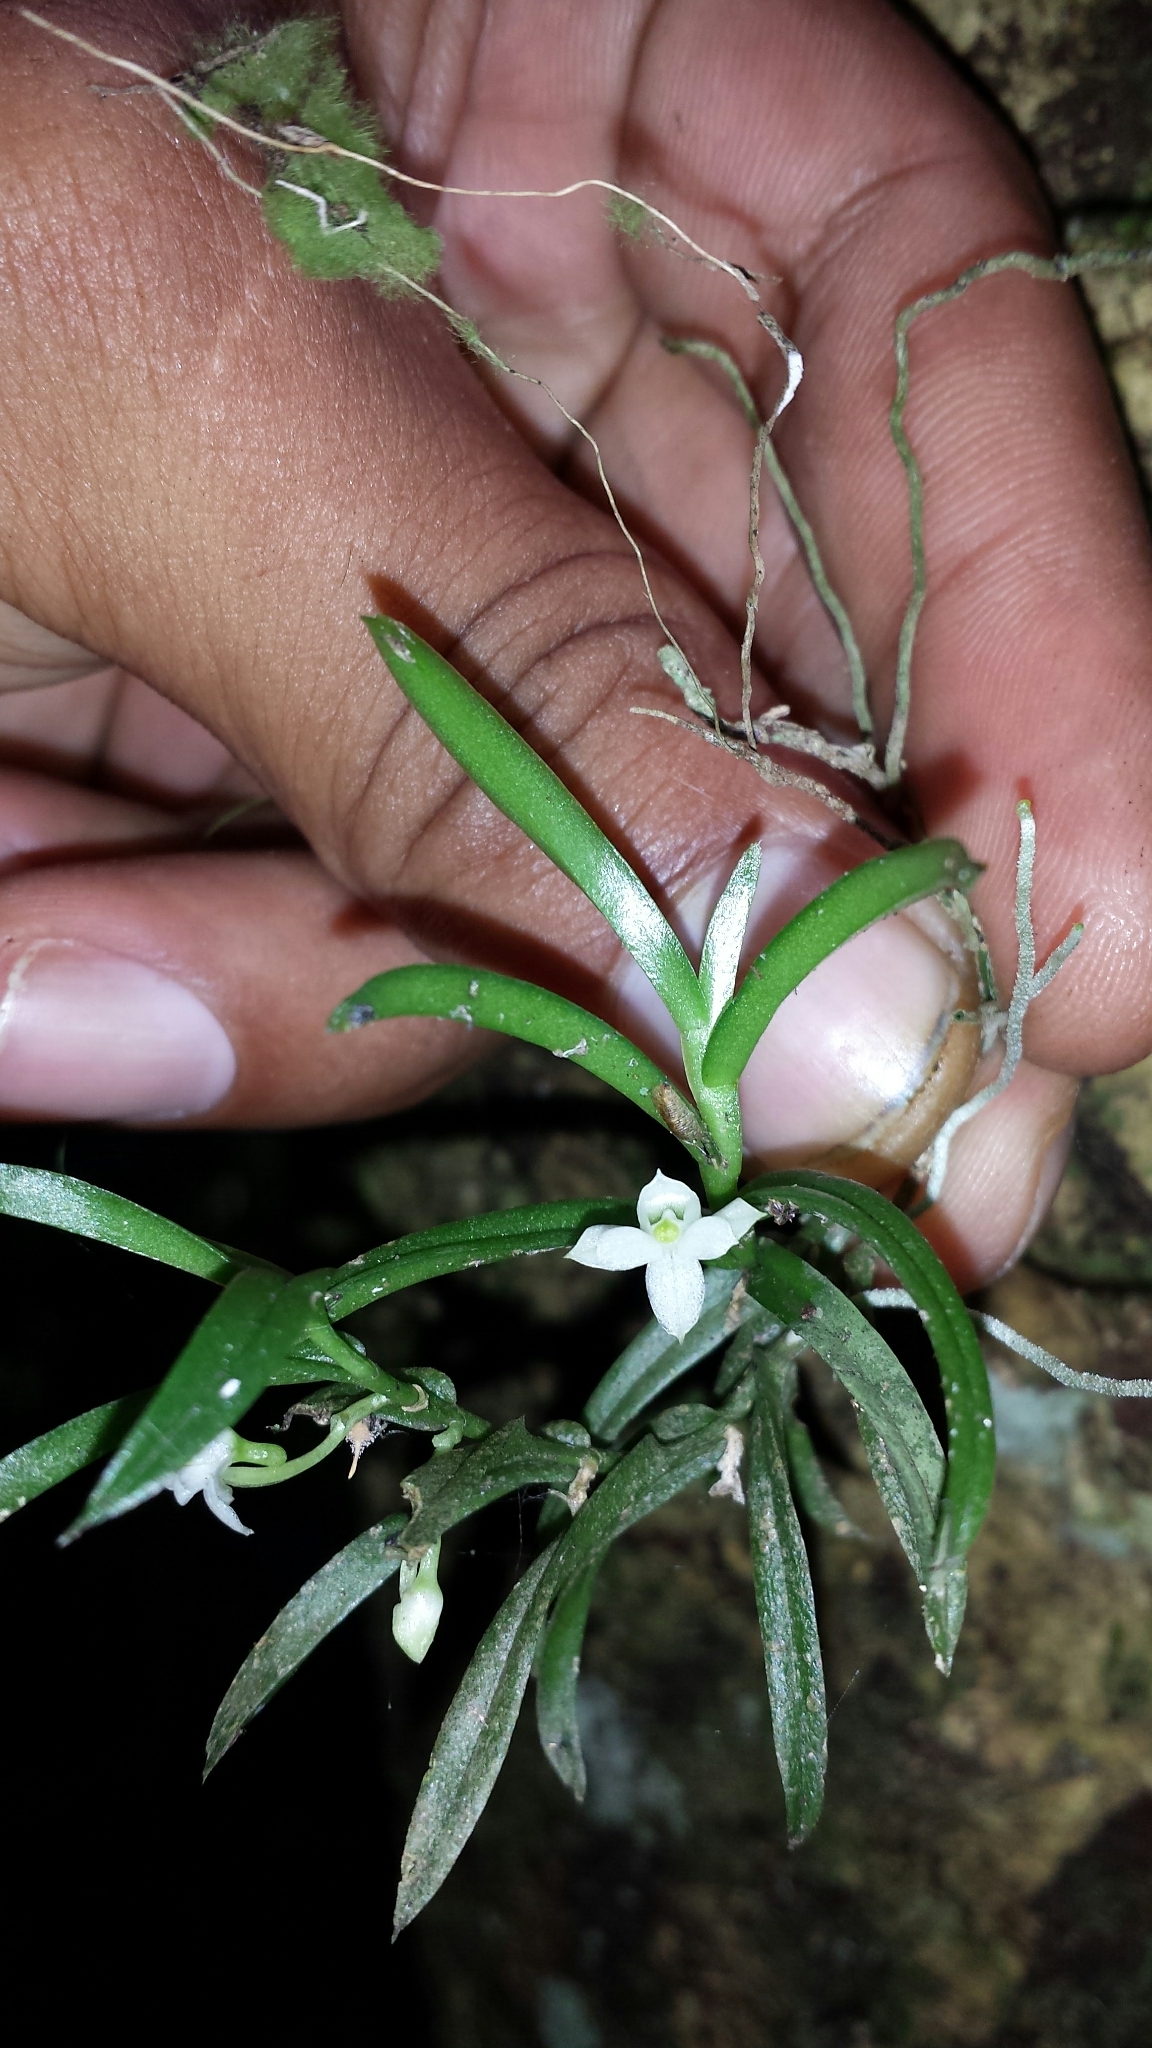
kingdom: Plantae
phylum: Tracheophyta
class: Liliopsida
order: Asparagales
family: Orchidaceae
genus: Angraecum
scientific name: Angraecum pterophyllum
